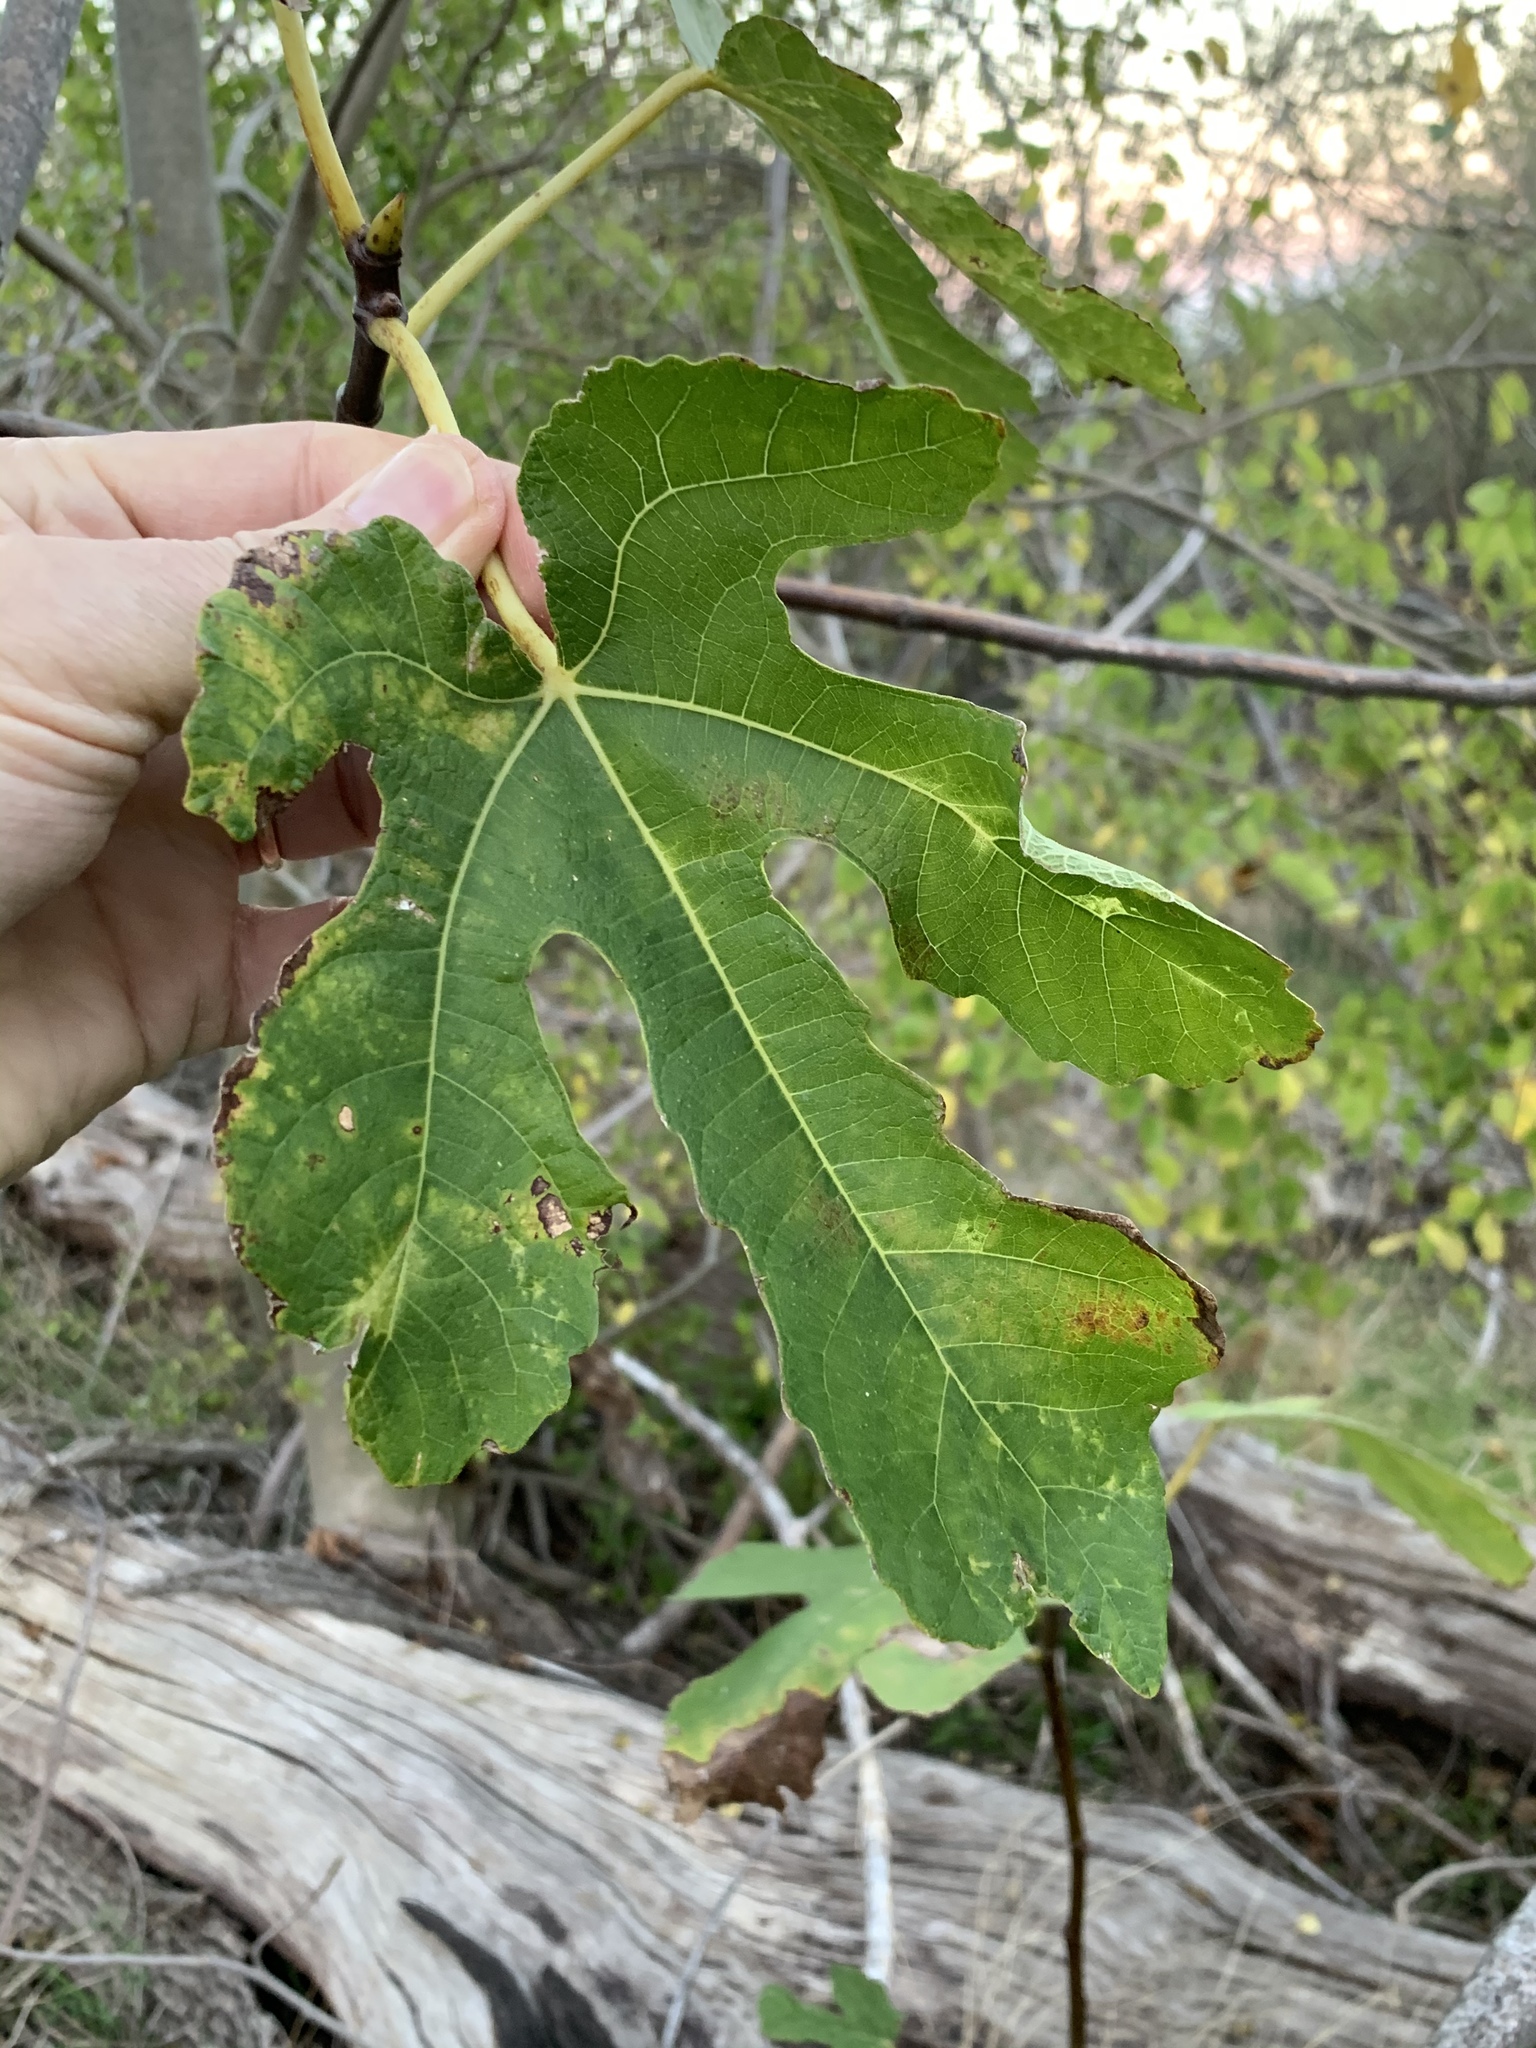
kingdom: Plantae
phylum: Tracheophyta
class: Magnoliopsida
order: Rosales
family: Moraceae
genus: Ficus
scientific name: Ficus carica
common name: Fig
